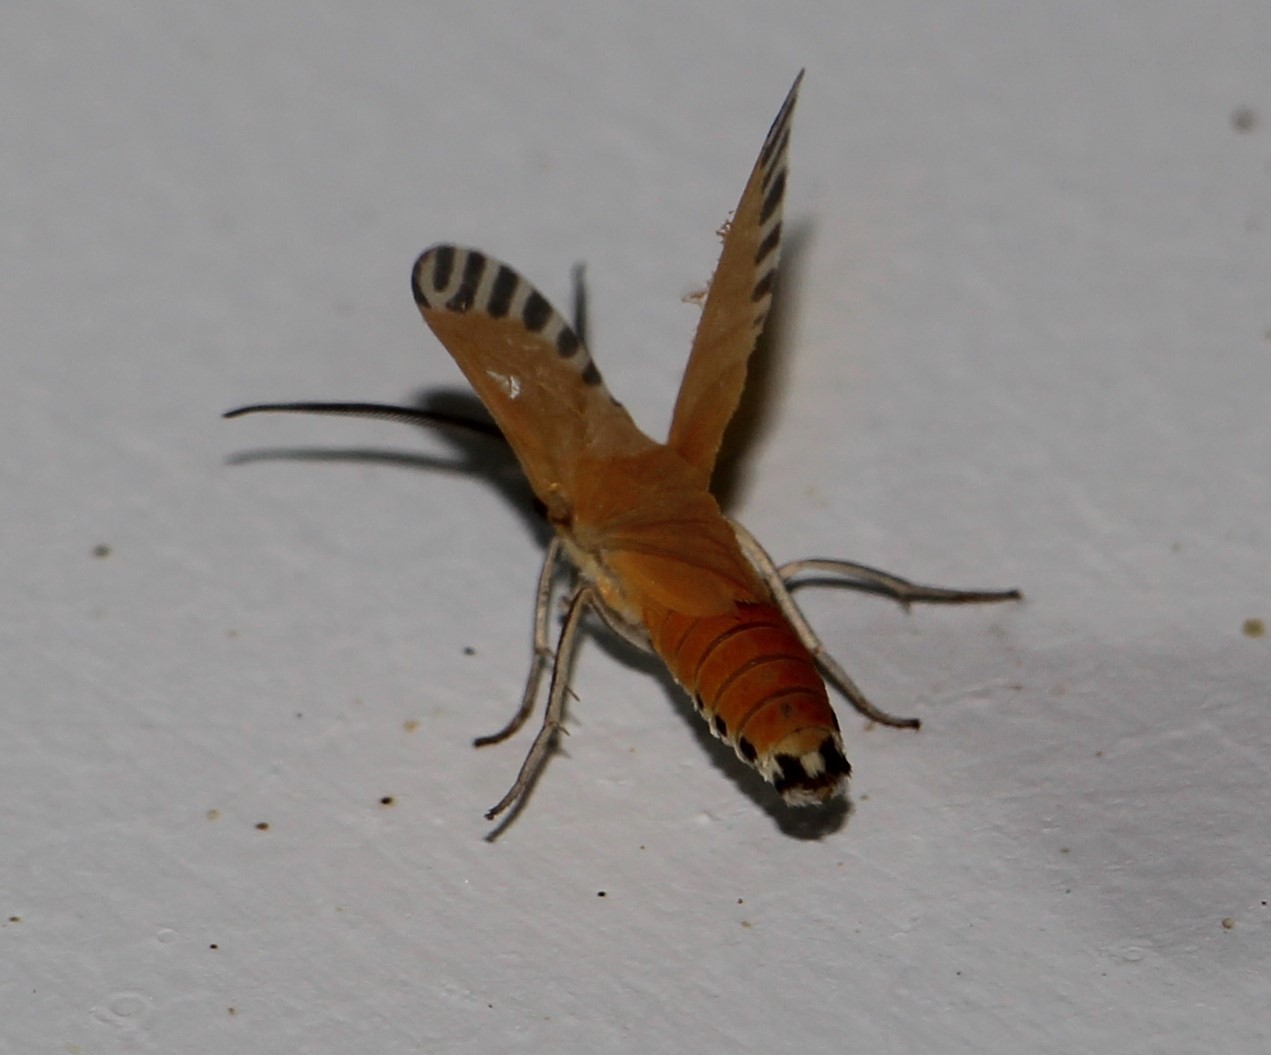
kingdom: Animalia
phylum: Arthropoda
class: Insecta
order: Lepidoptera
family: Erebidae
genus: Uranophora
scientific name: Uranophora walkeri
